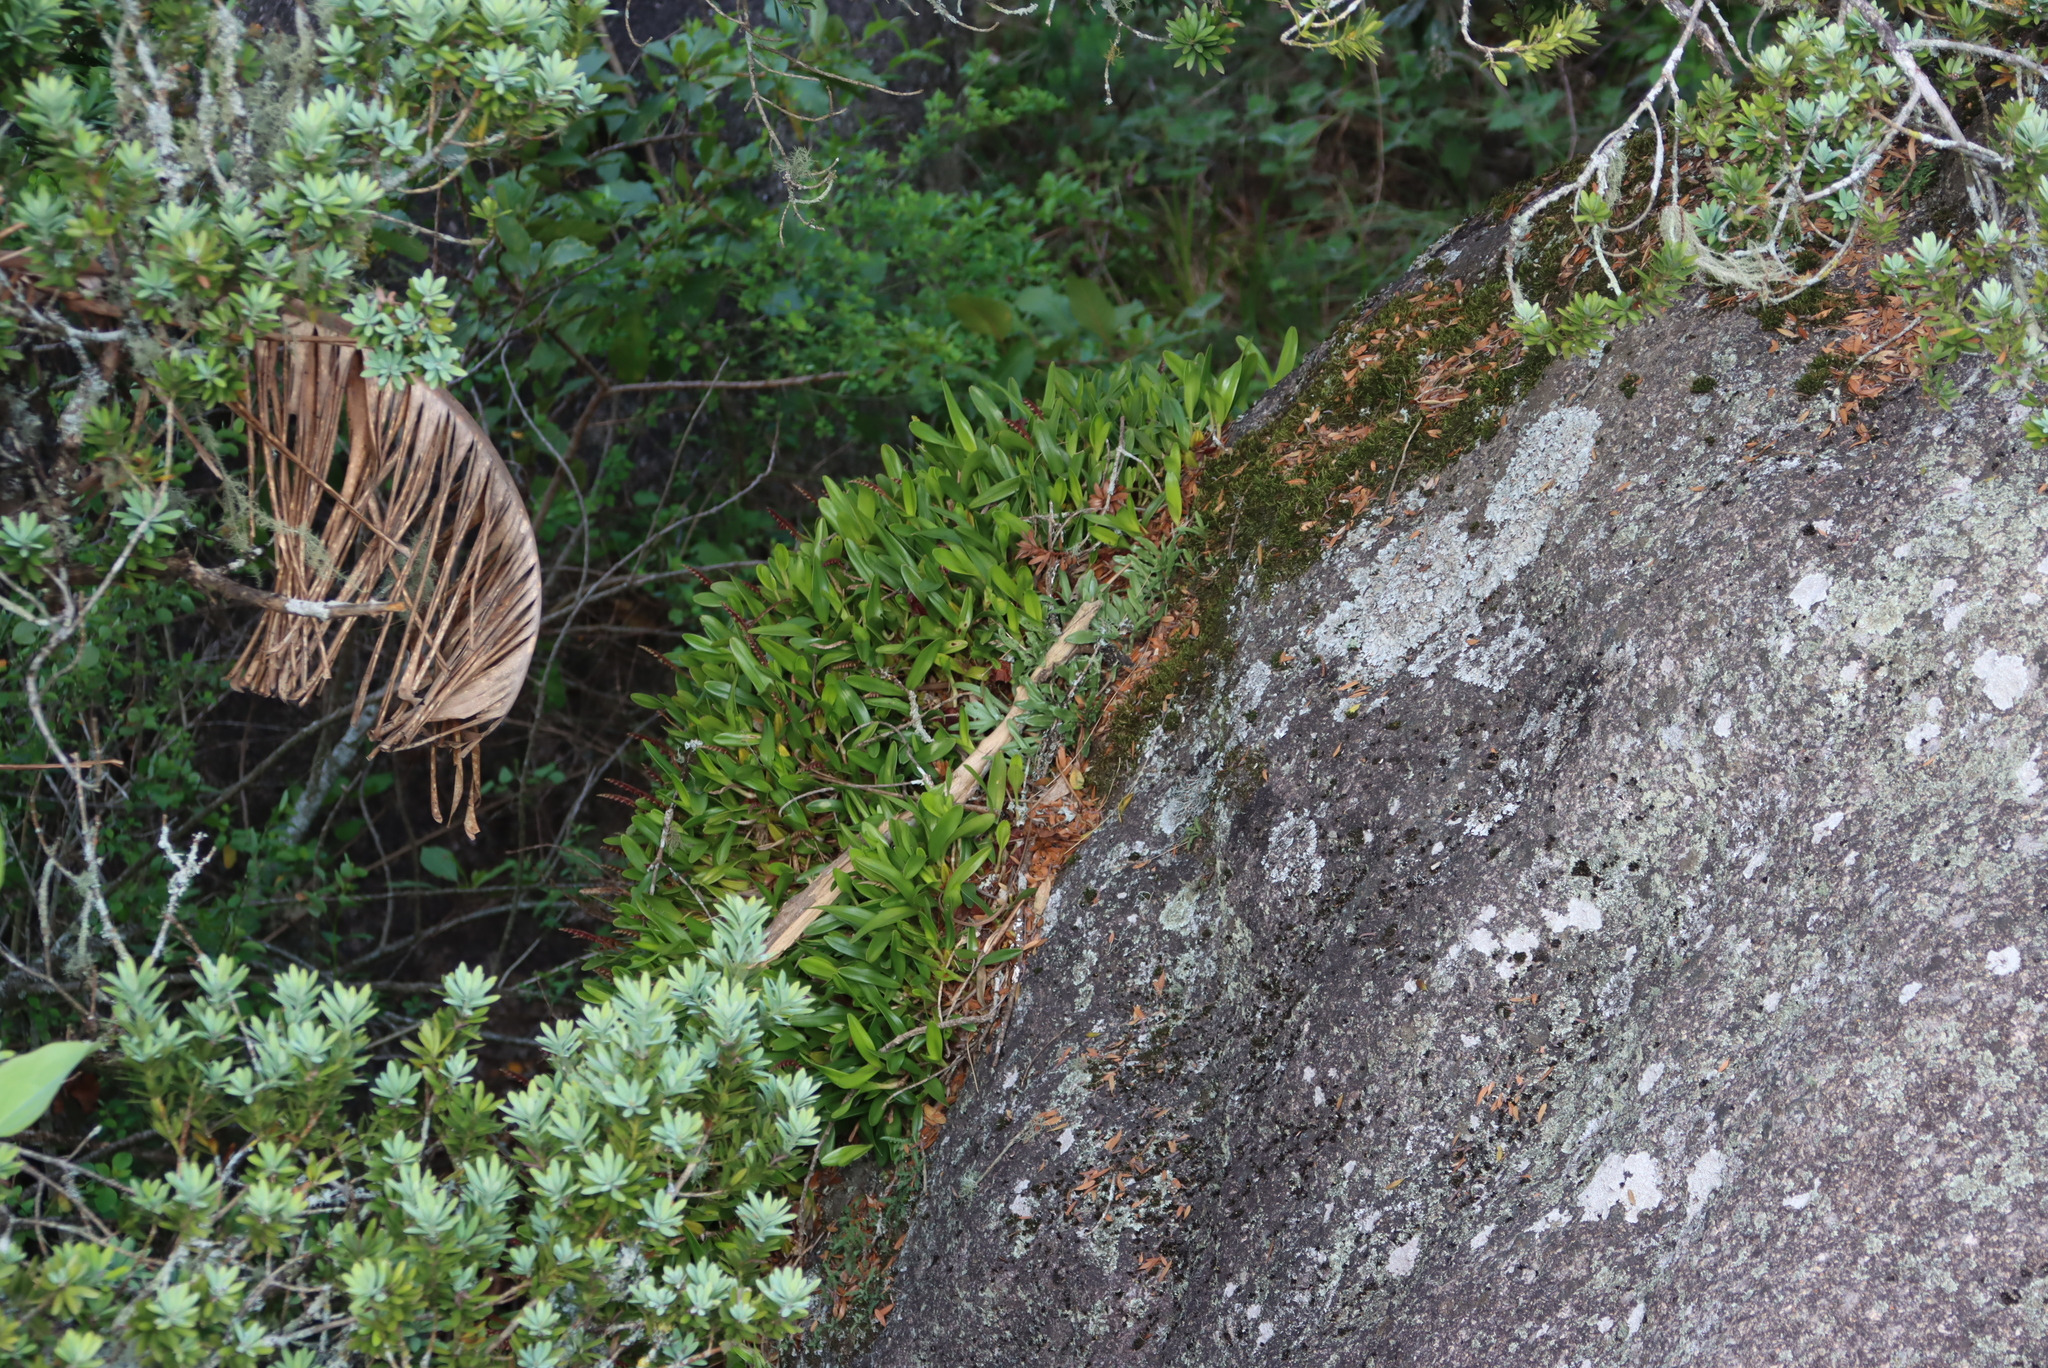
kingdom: Plantae
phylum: Tracheophyta
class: Liliopsida
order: Asparagales
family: Orchidaceae
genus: Bulbophyllum
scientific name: Bulbophyllum sandersonii
